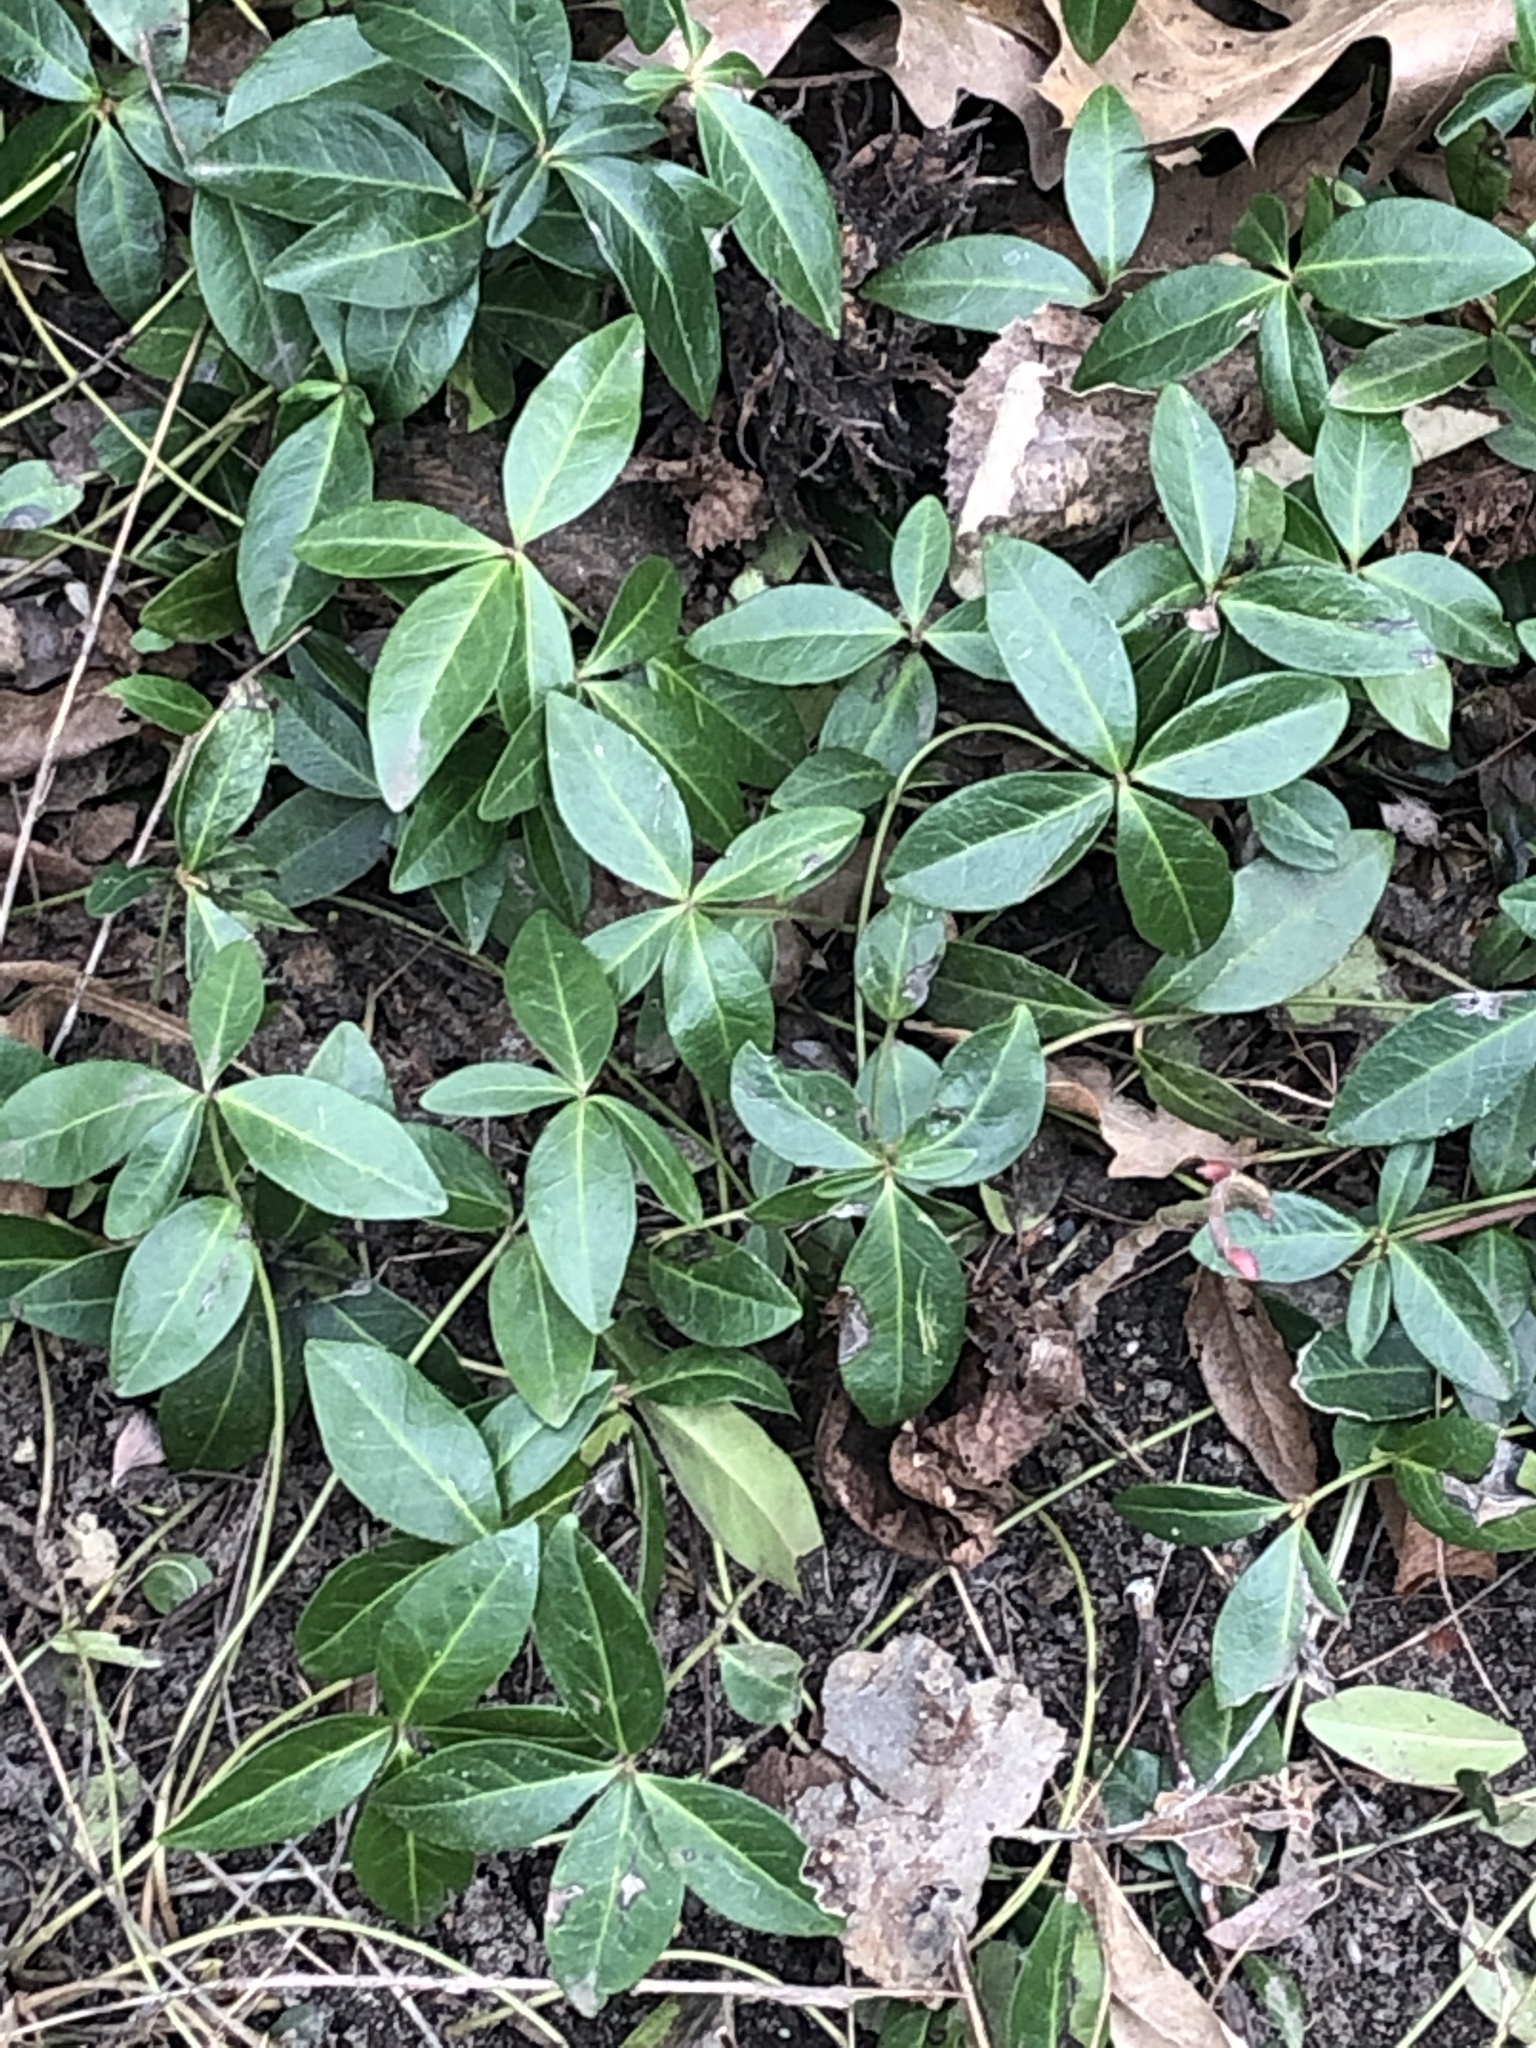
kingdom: Plantae
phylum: Tracheophyta
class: Magnoliopsida
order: Gentianales
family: Apocynaceae
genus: Vinca
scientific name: Vinca minor
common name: Lesser periwinkle
